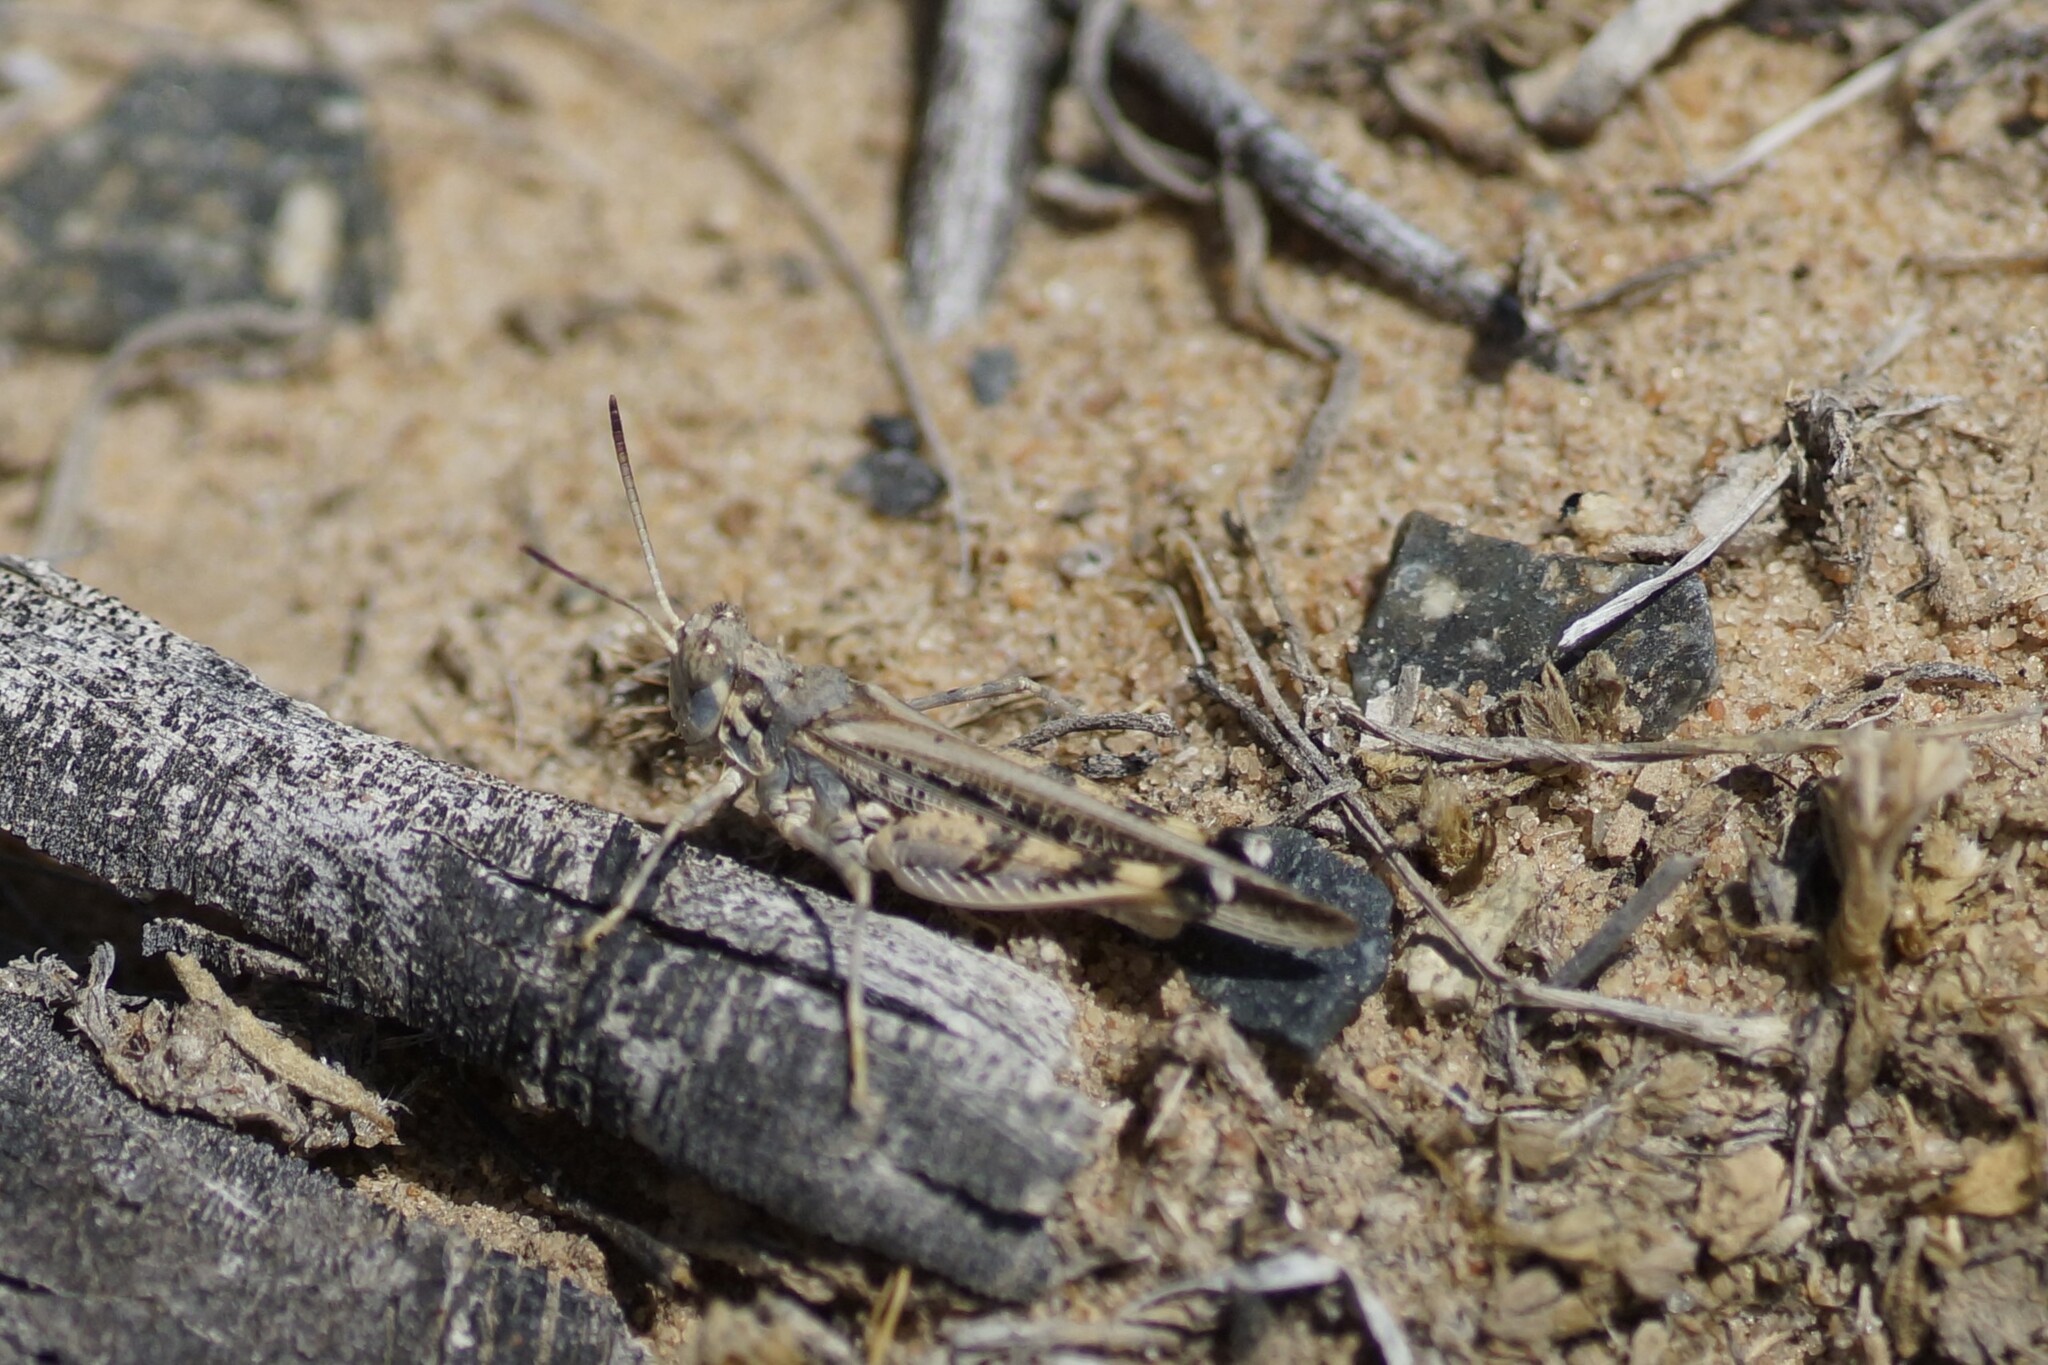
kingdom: Animalia
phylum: Arthropoda
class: Insecta
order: Orthoptera
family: Acrididae
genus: Urnisa
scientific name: Urnisa guttulosa
